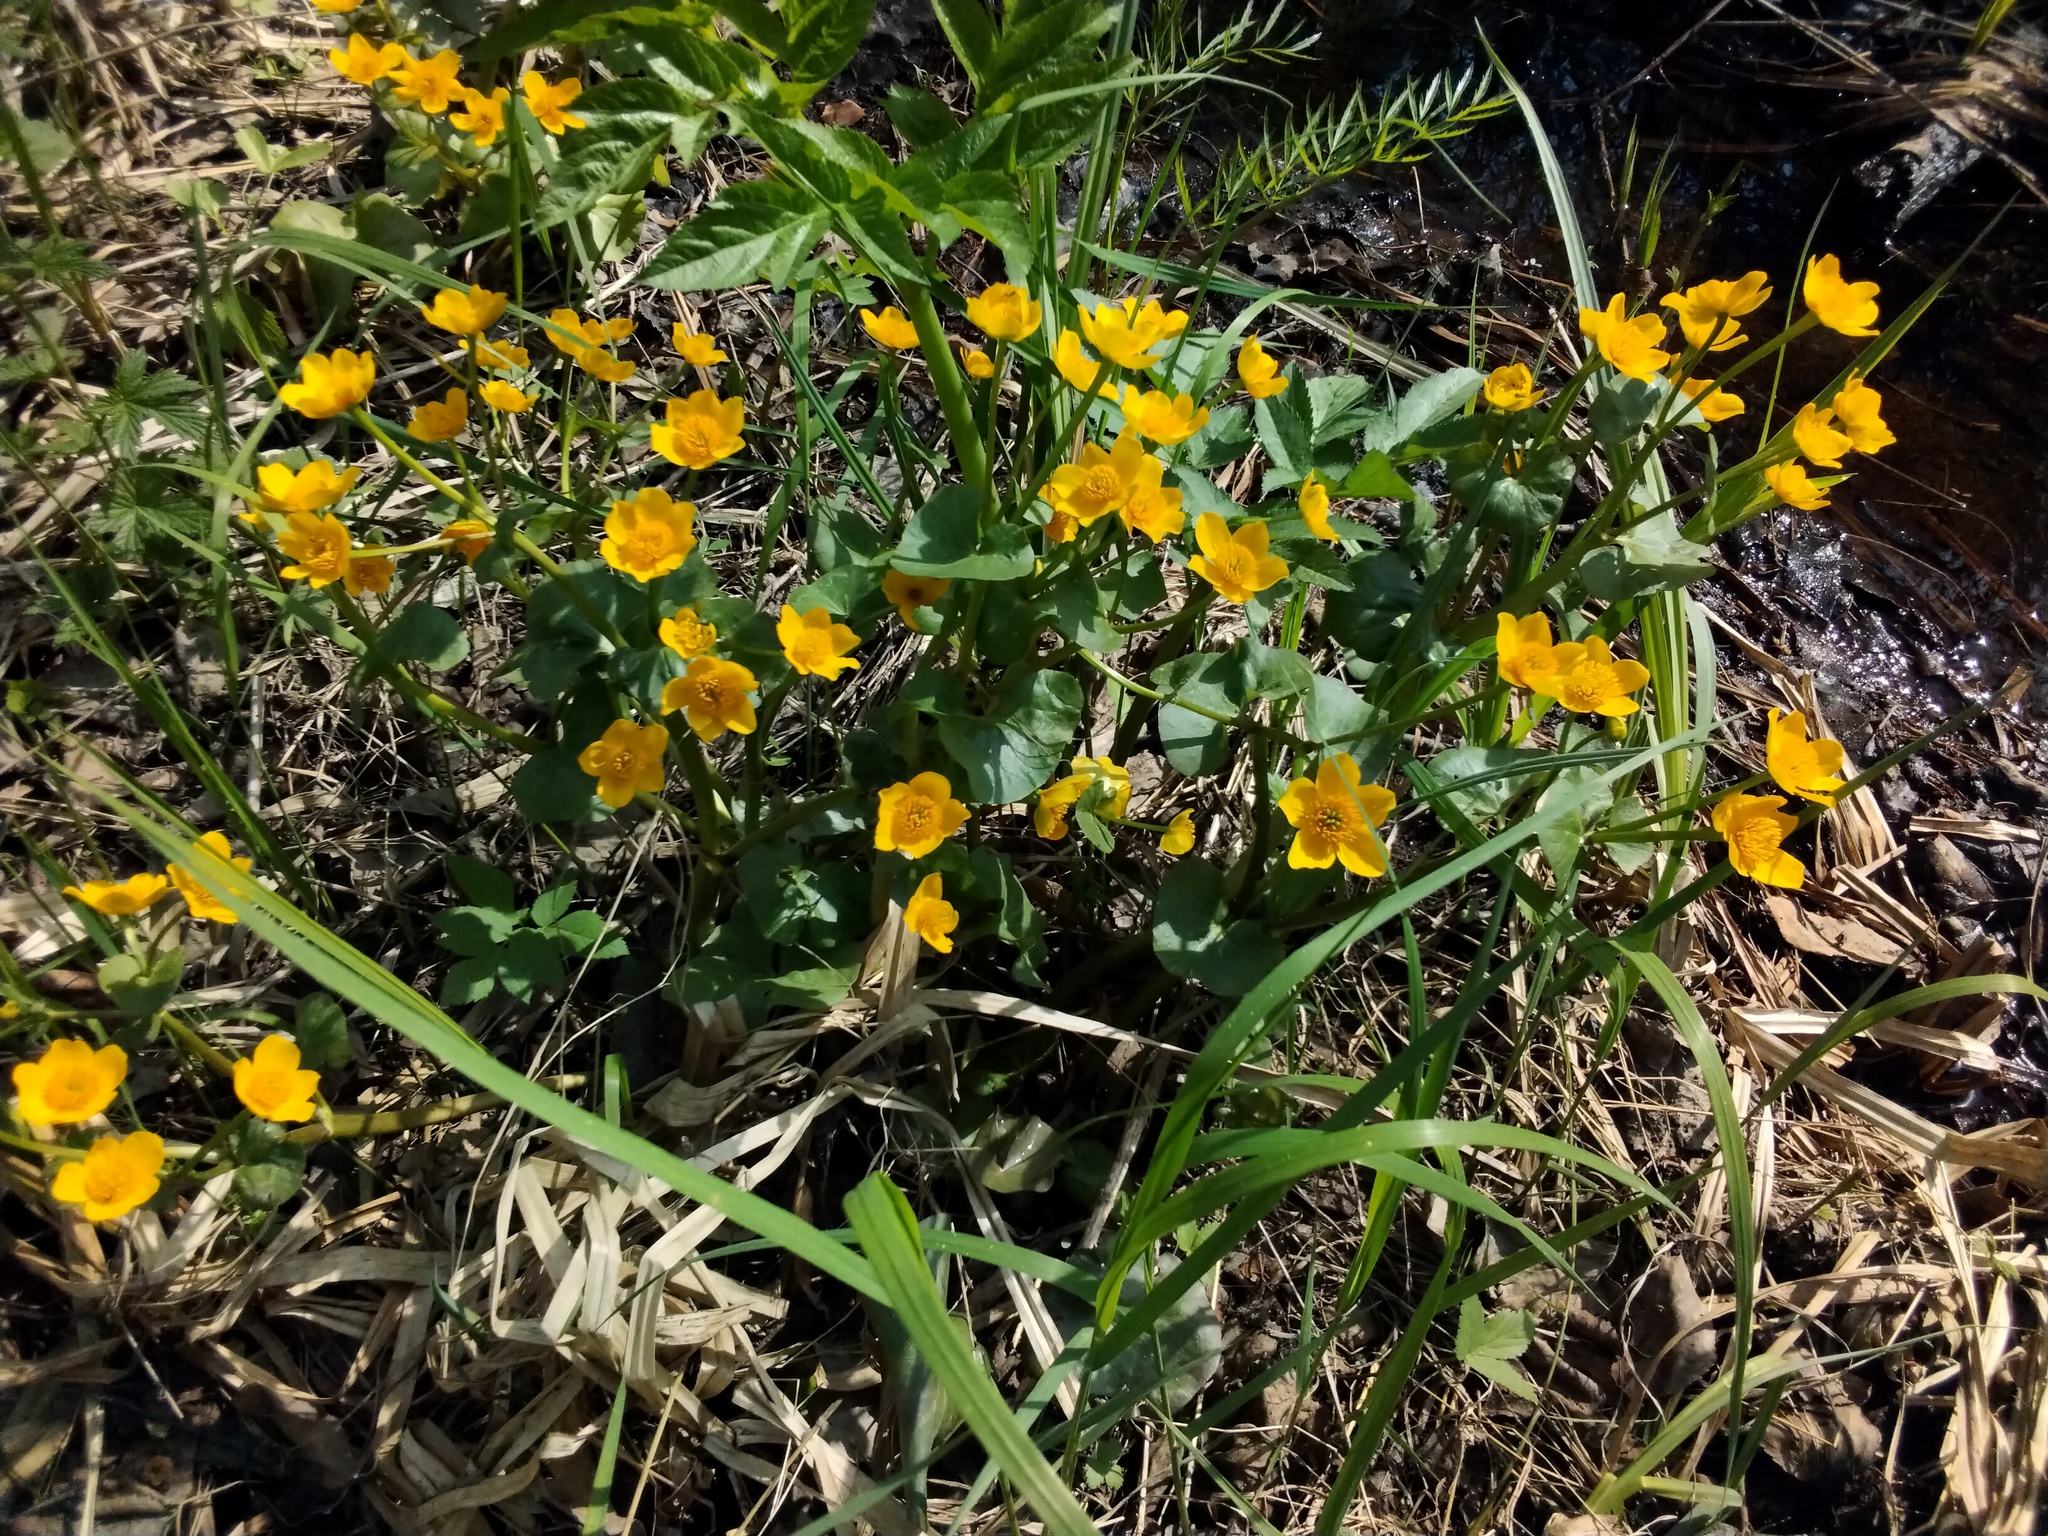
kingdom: Plantae
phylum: Tracheophyta
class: Magnoliopsida
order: Ranunculales
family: Ranunculaceae
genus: Caltha
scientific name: Caltha palustris
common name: Marsh marigold
